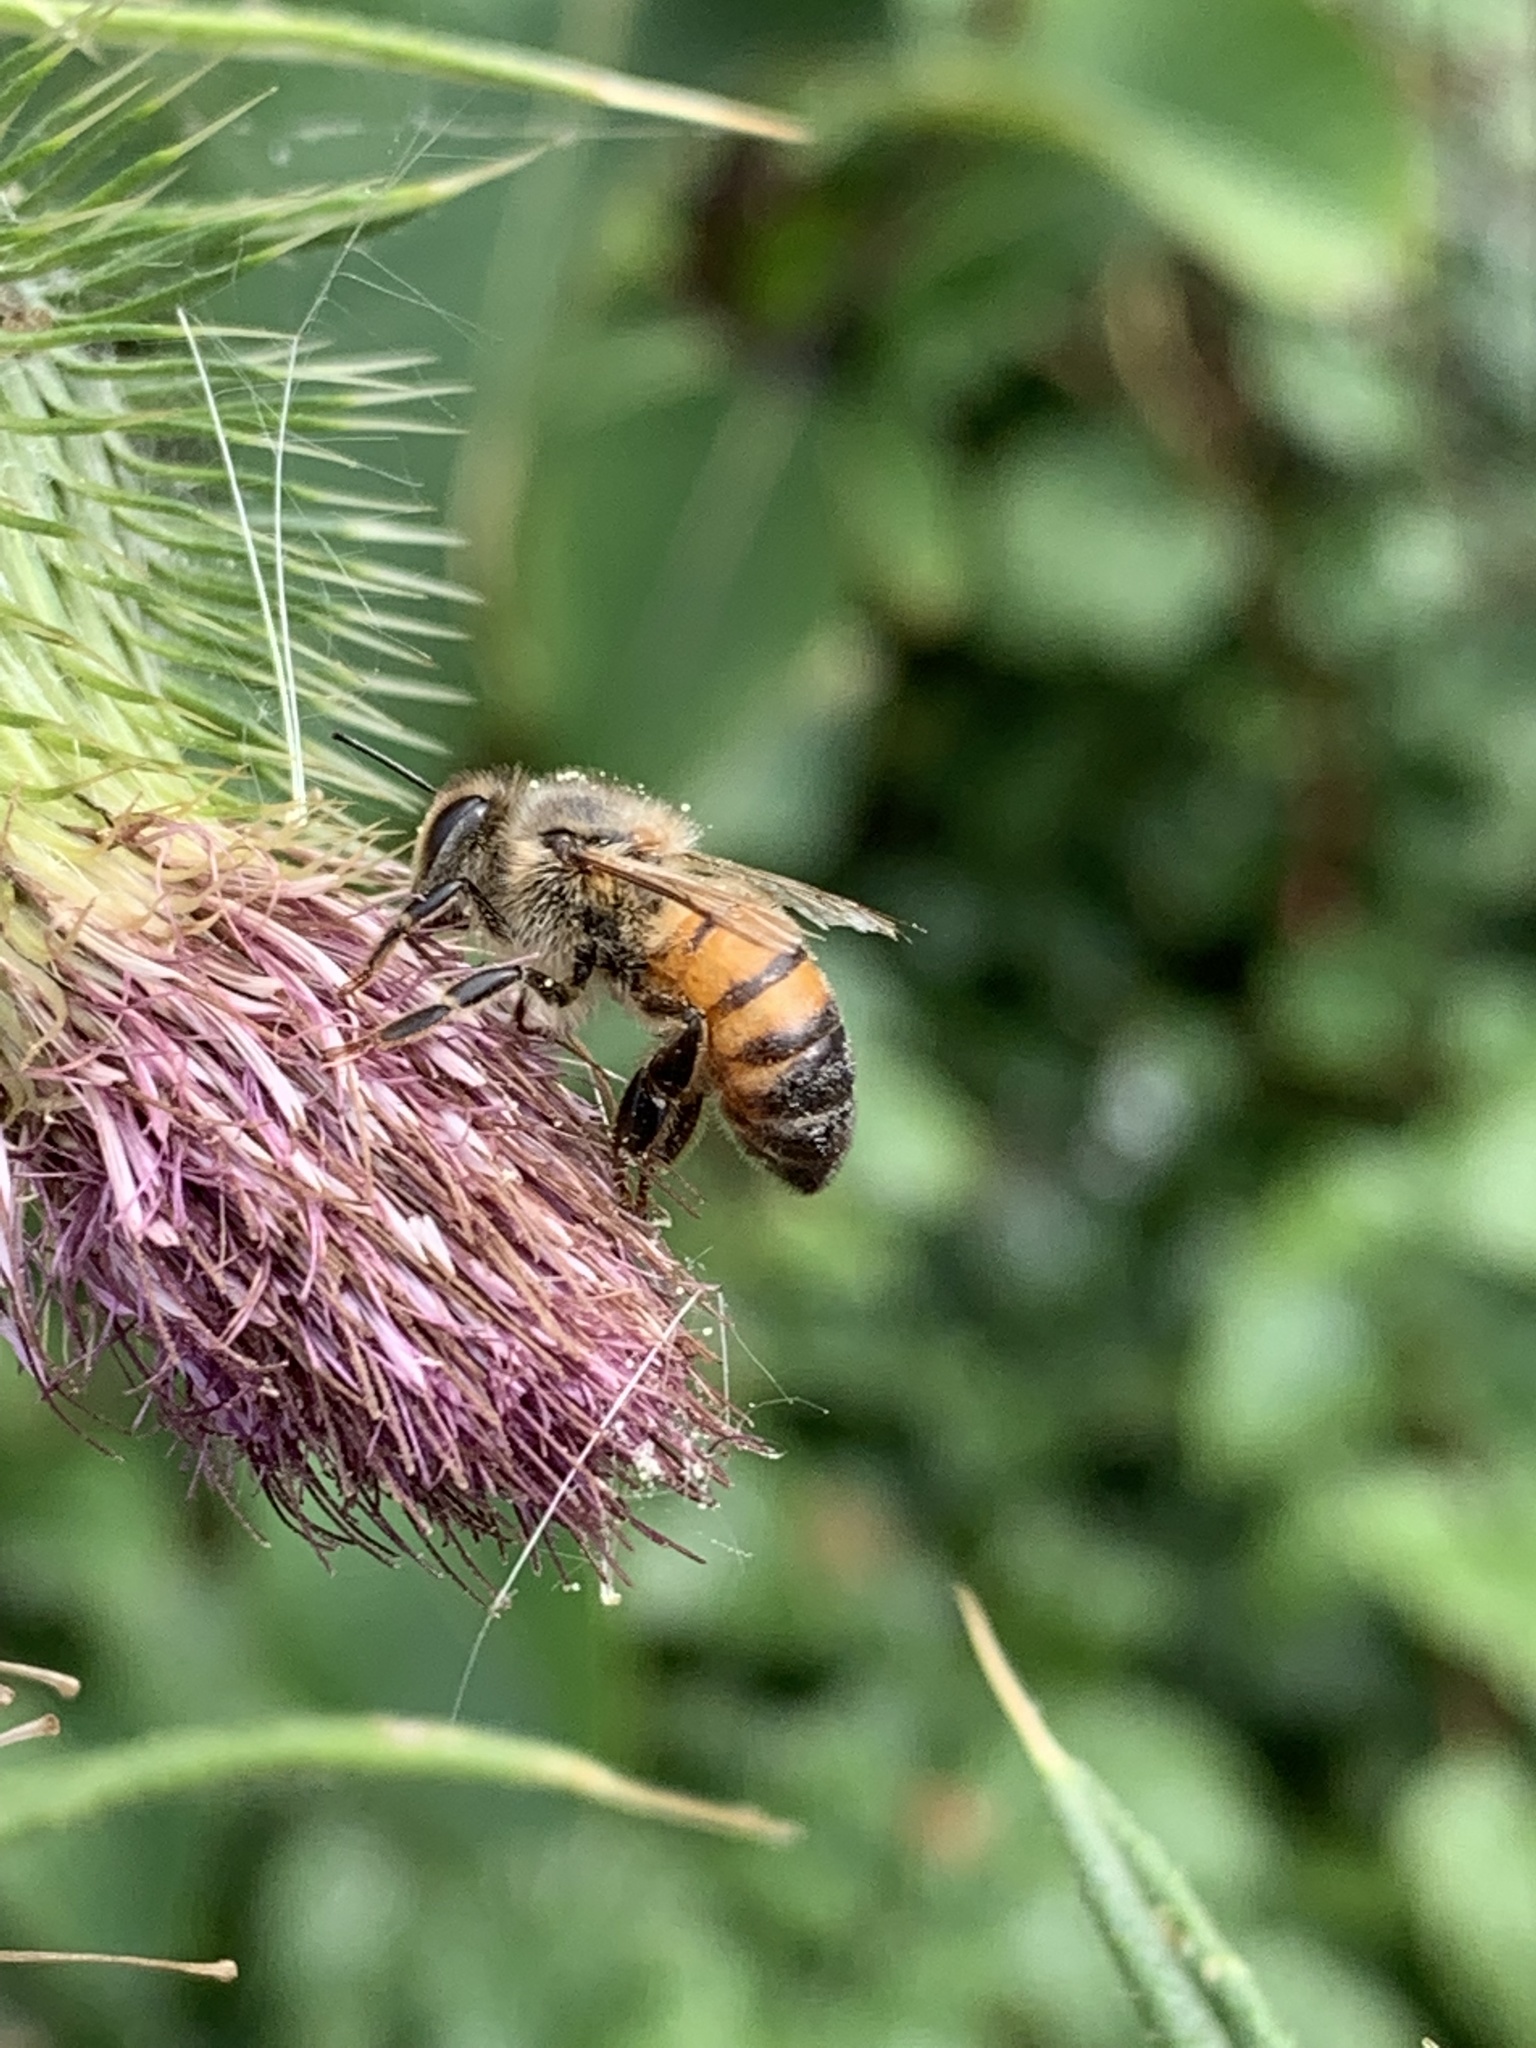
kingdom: Animalia
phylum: Arthropoda
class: Insecta
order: Hymenoptera
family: Apidae
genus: Apis
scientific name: Apis mellifera
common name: Honey bee
